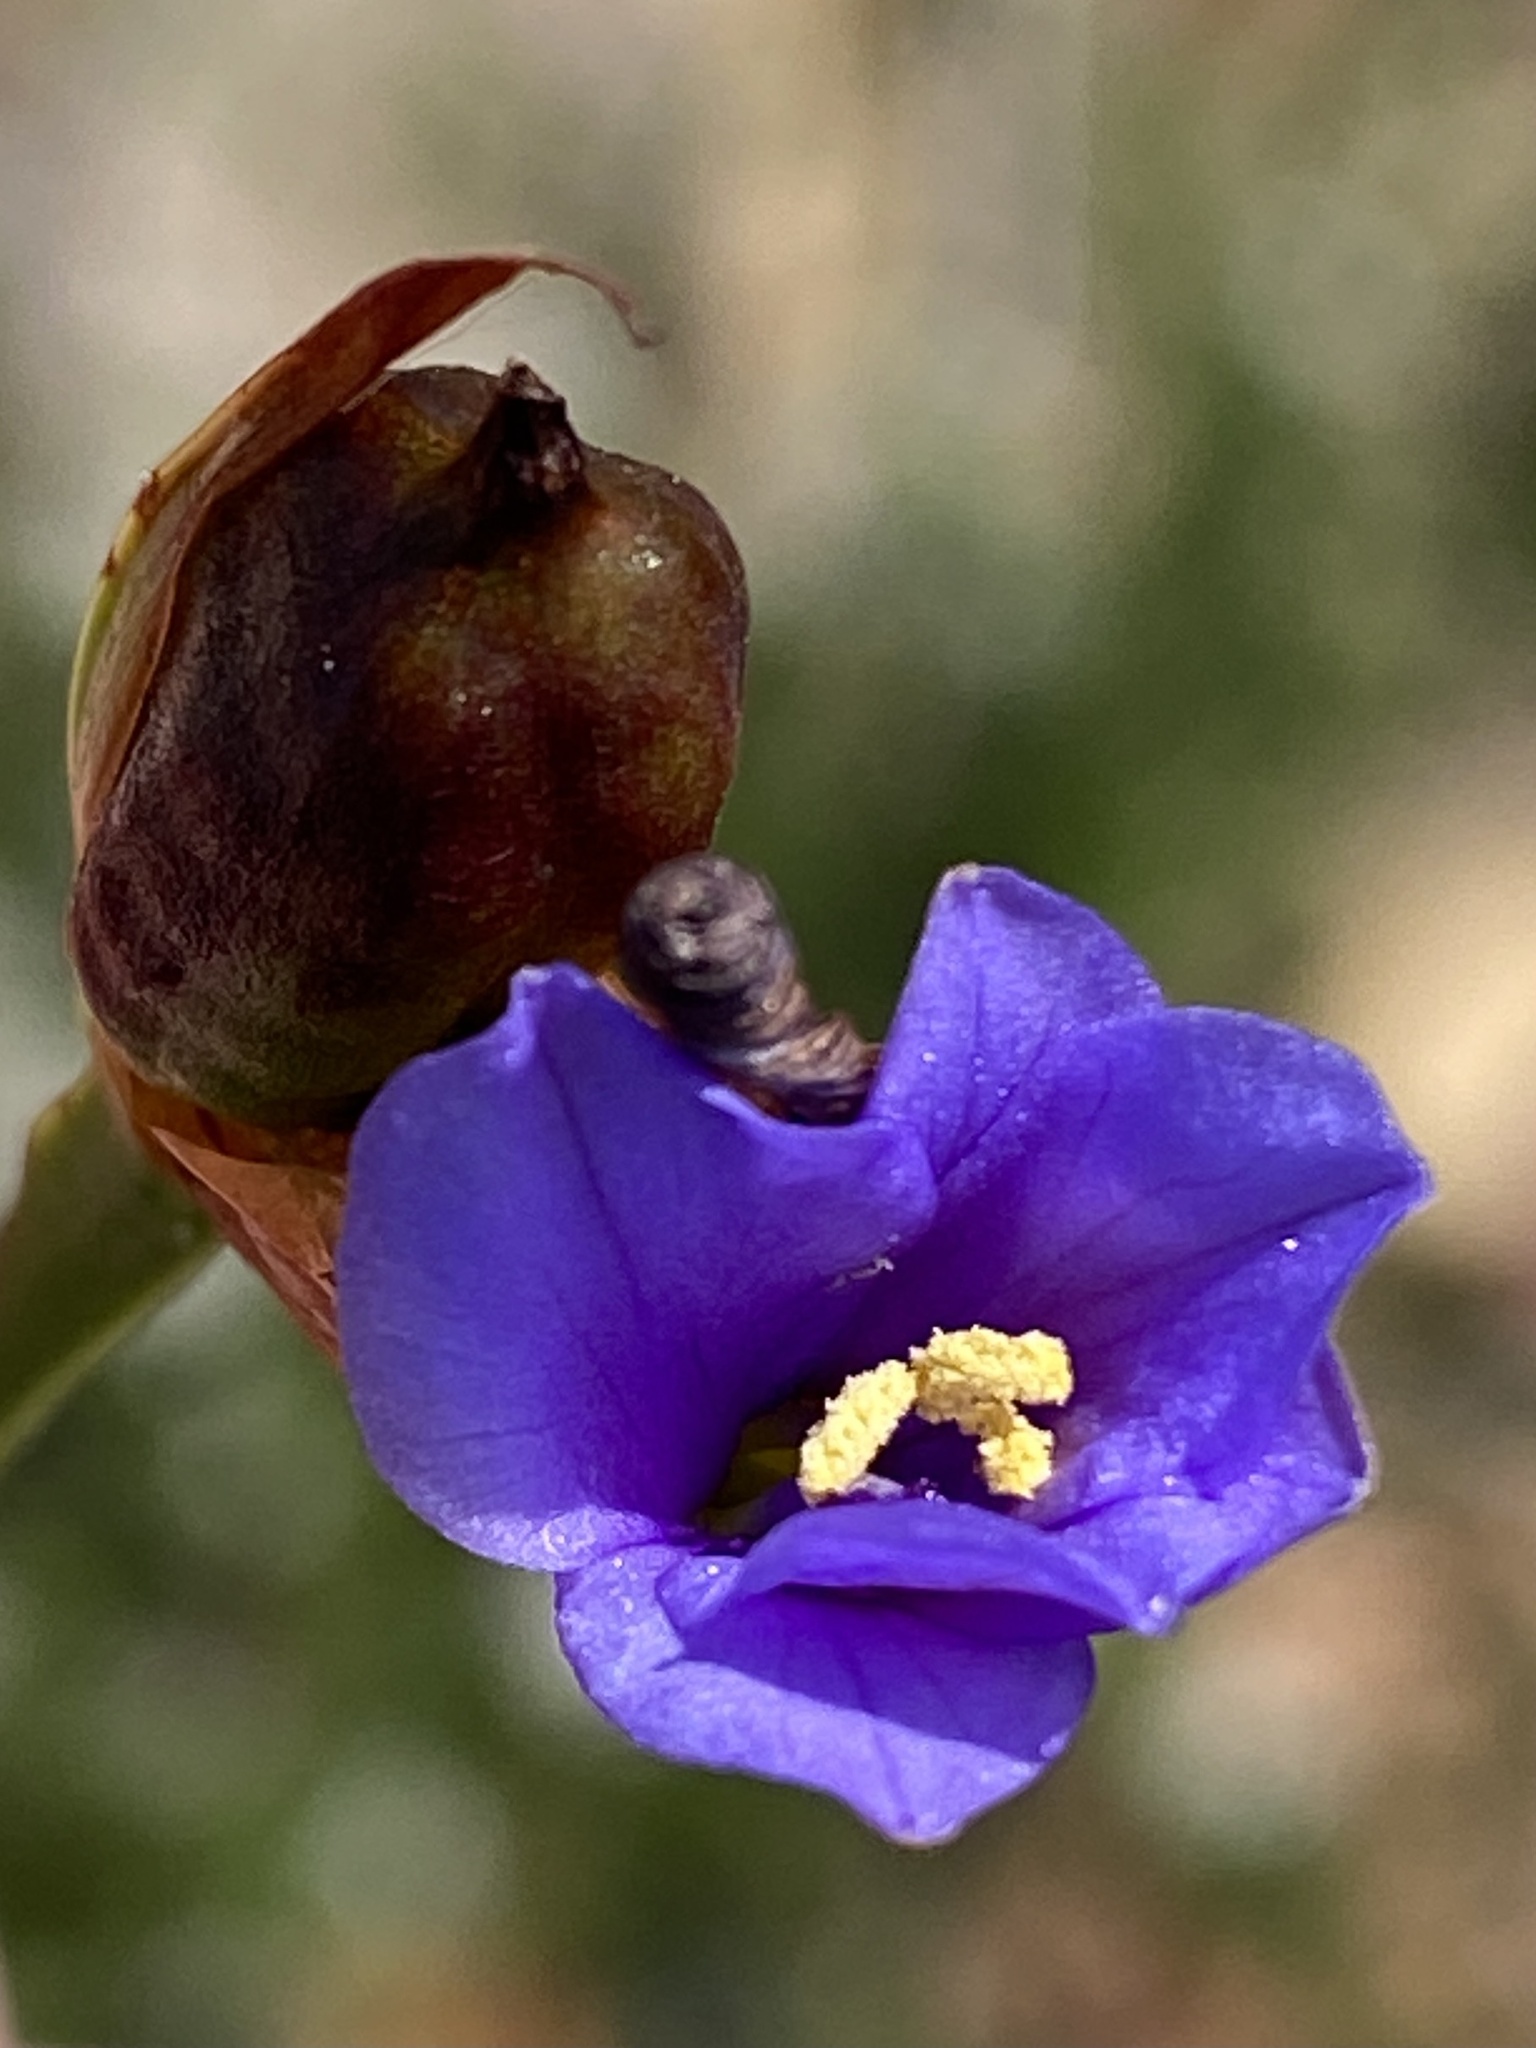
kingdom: Plantae
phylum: Tracheophyta
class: Liliopsida
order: Asparagales
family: Iridaceae
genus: Aristea
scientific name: Aristea anceps
